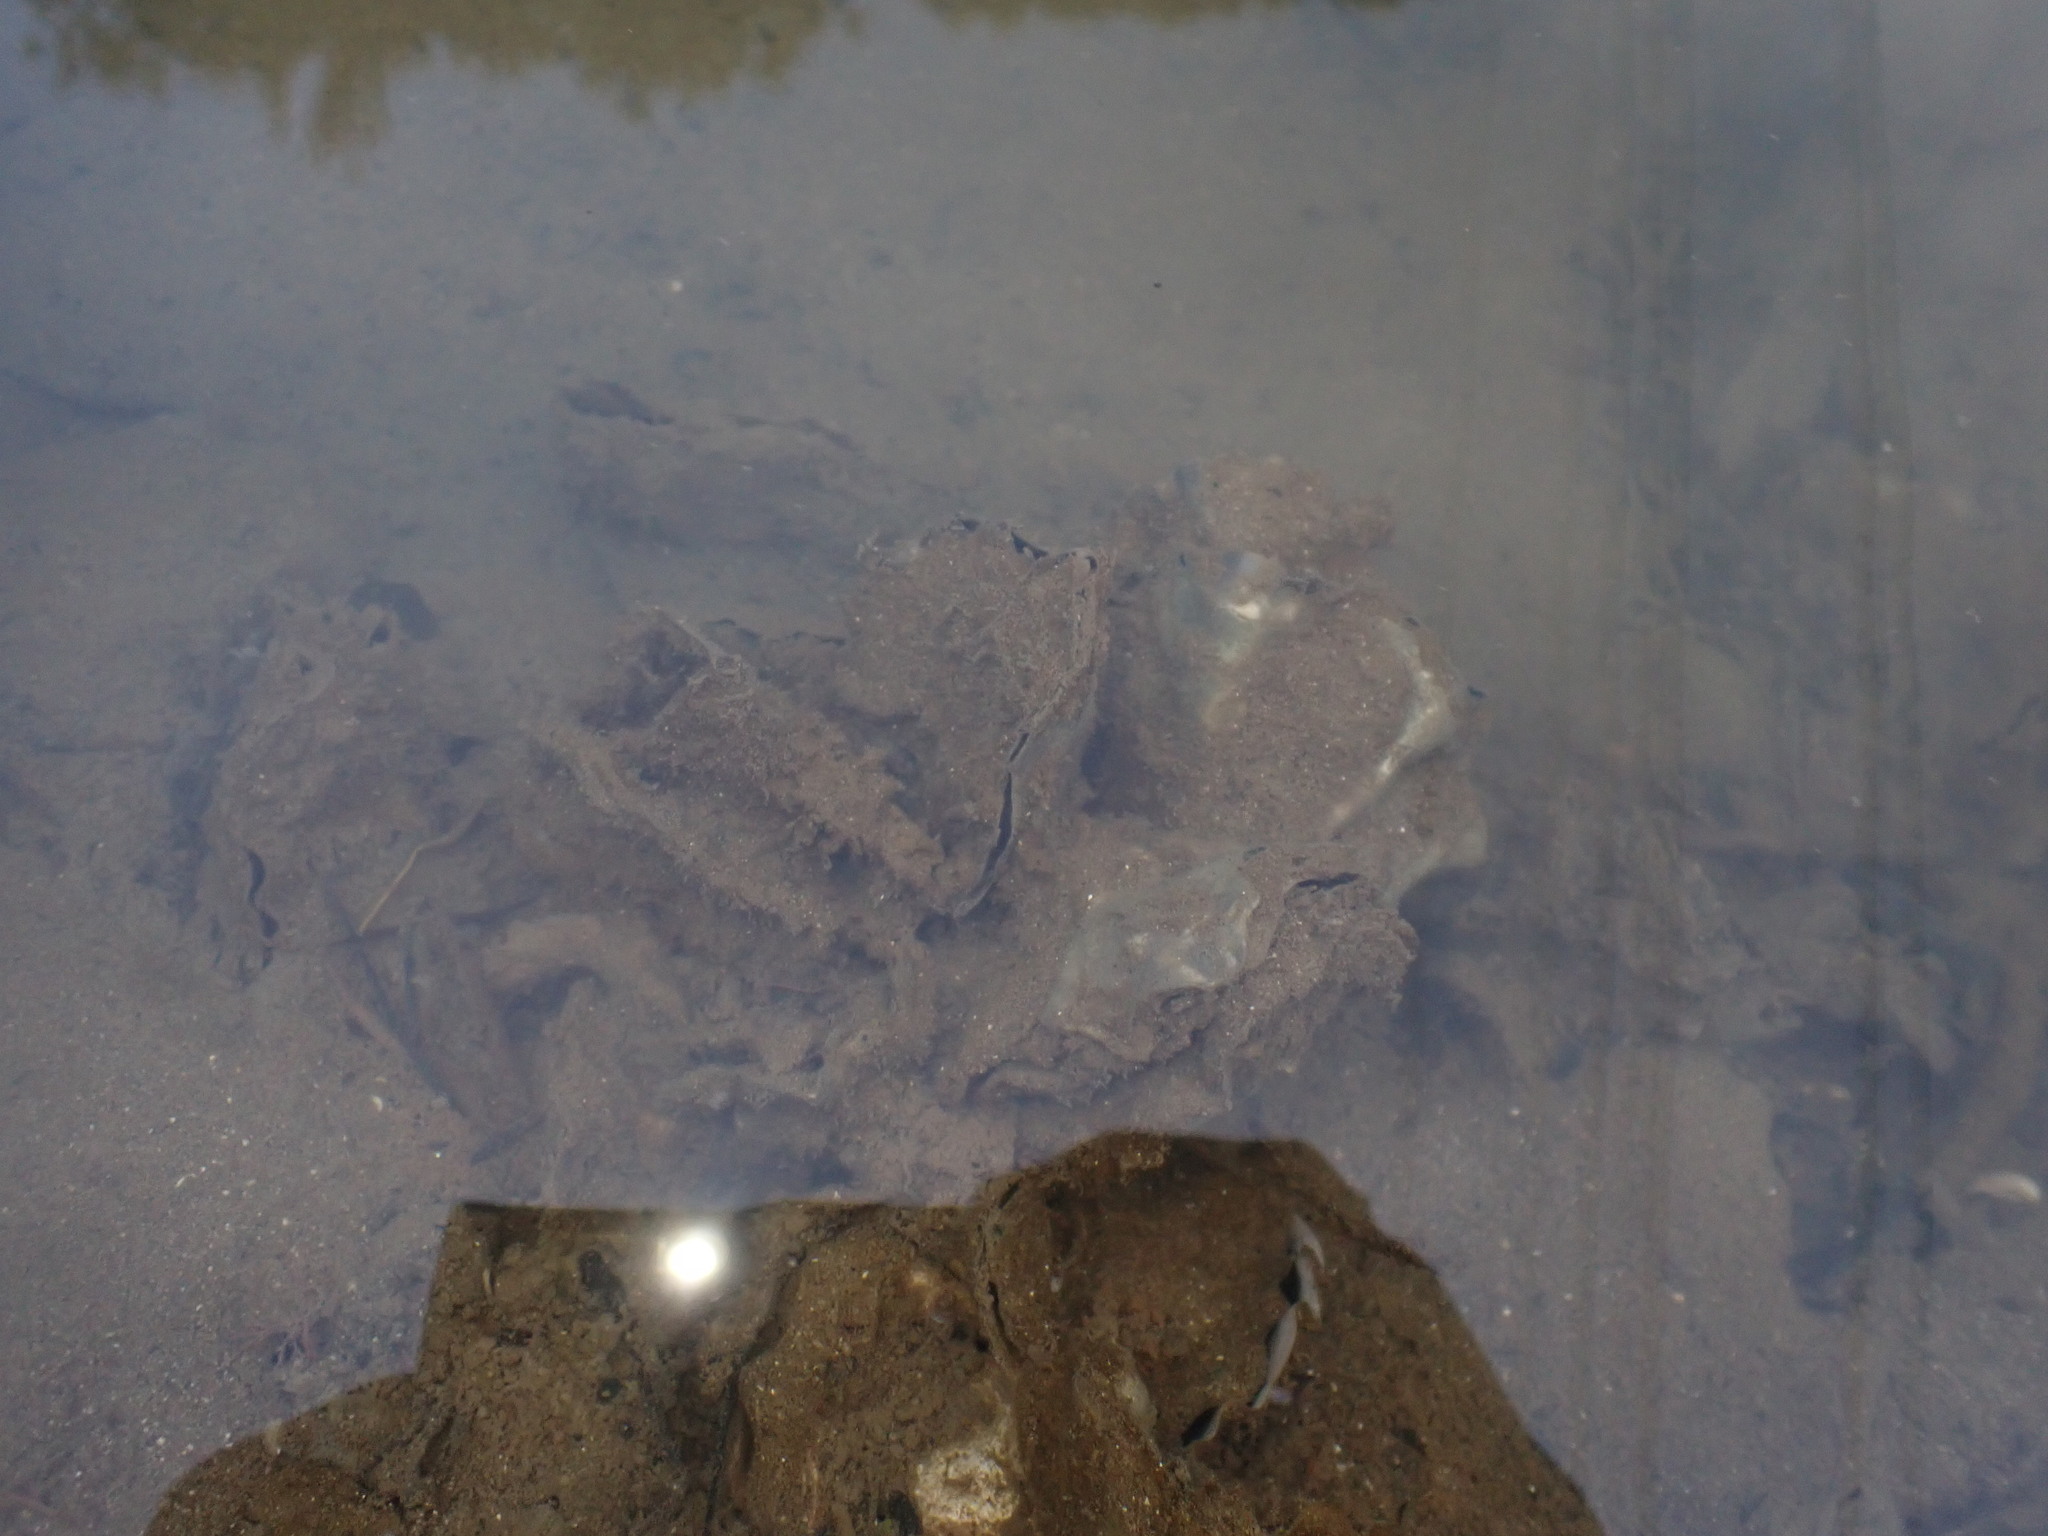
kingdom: Animalia
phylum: Mollusca
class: Bivalvia
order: Ostreida
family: Ostreidae
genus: Magallana
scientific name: Magallana gigas
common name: Pacific oyster
